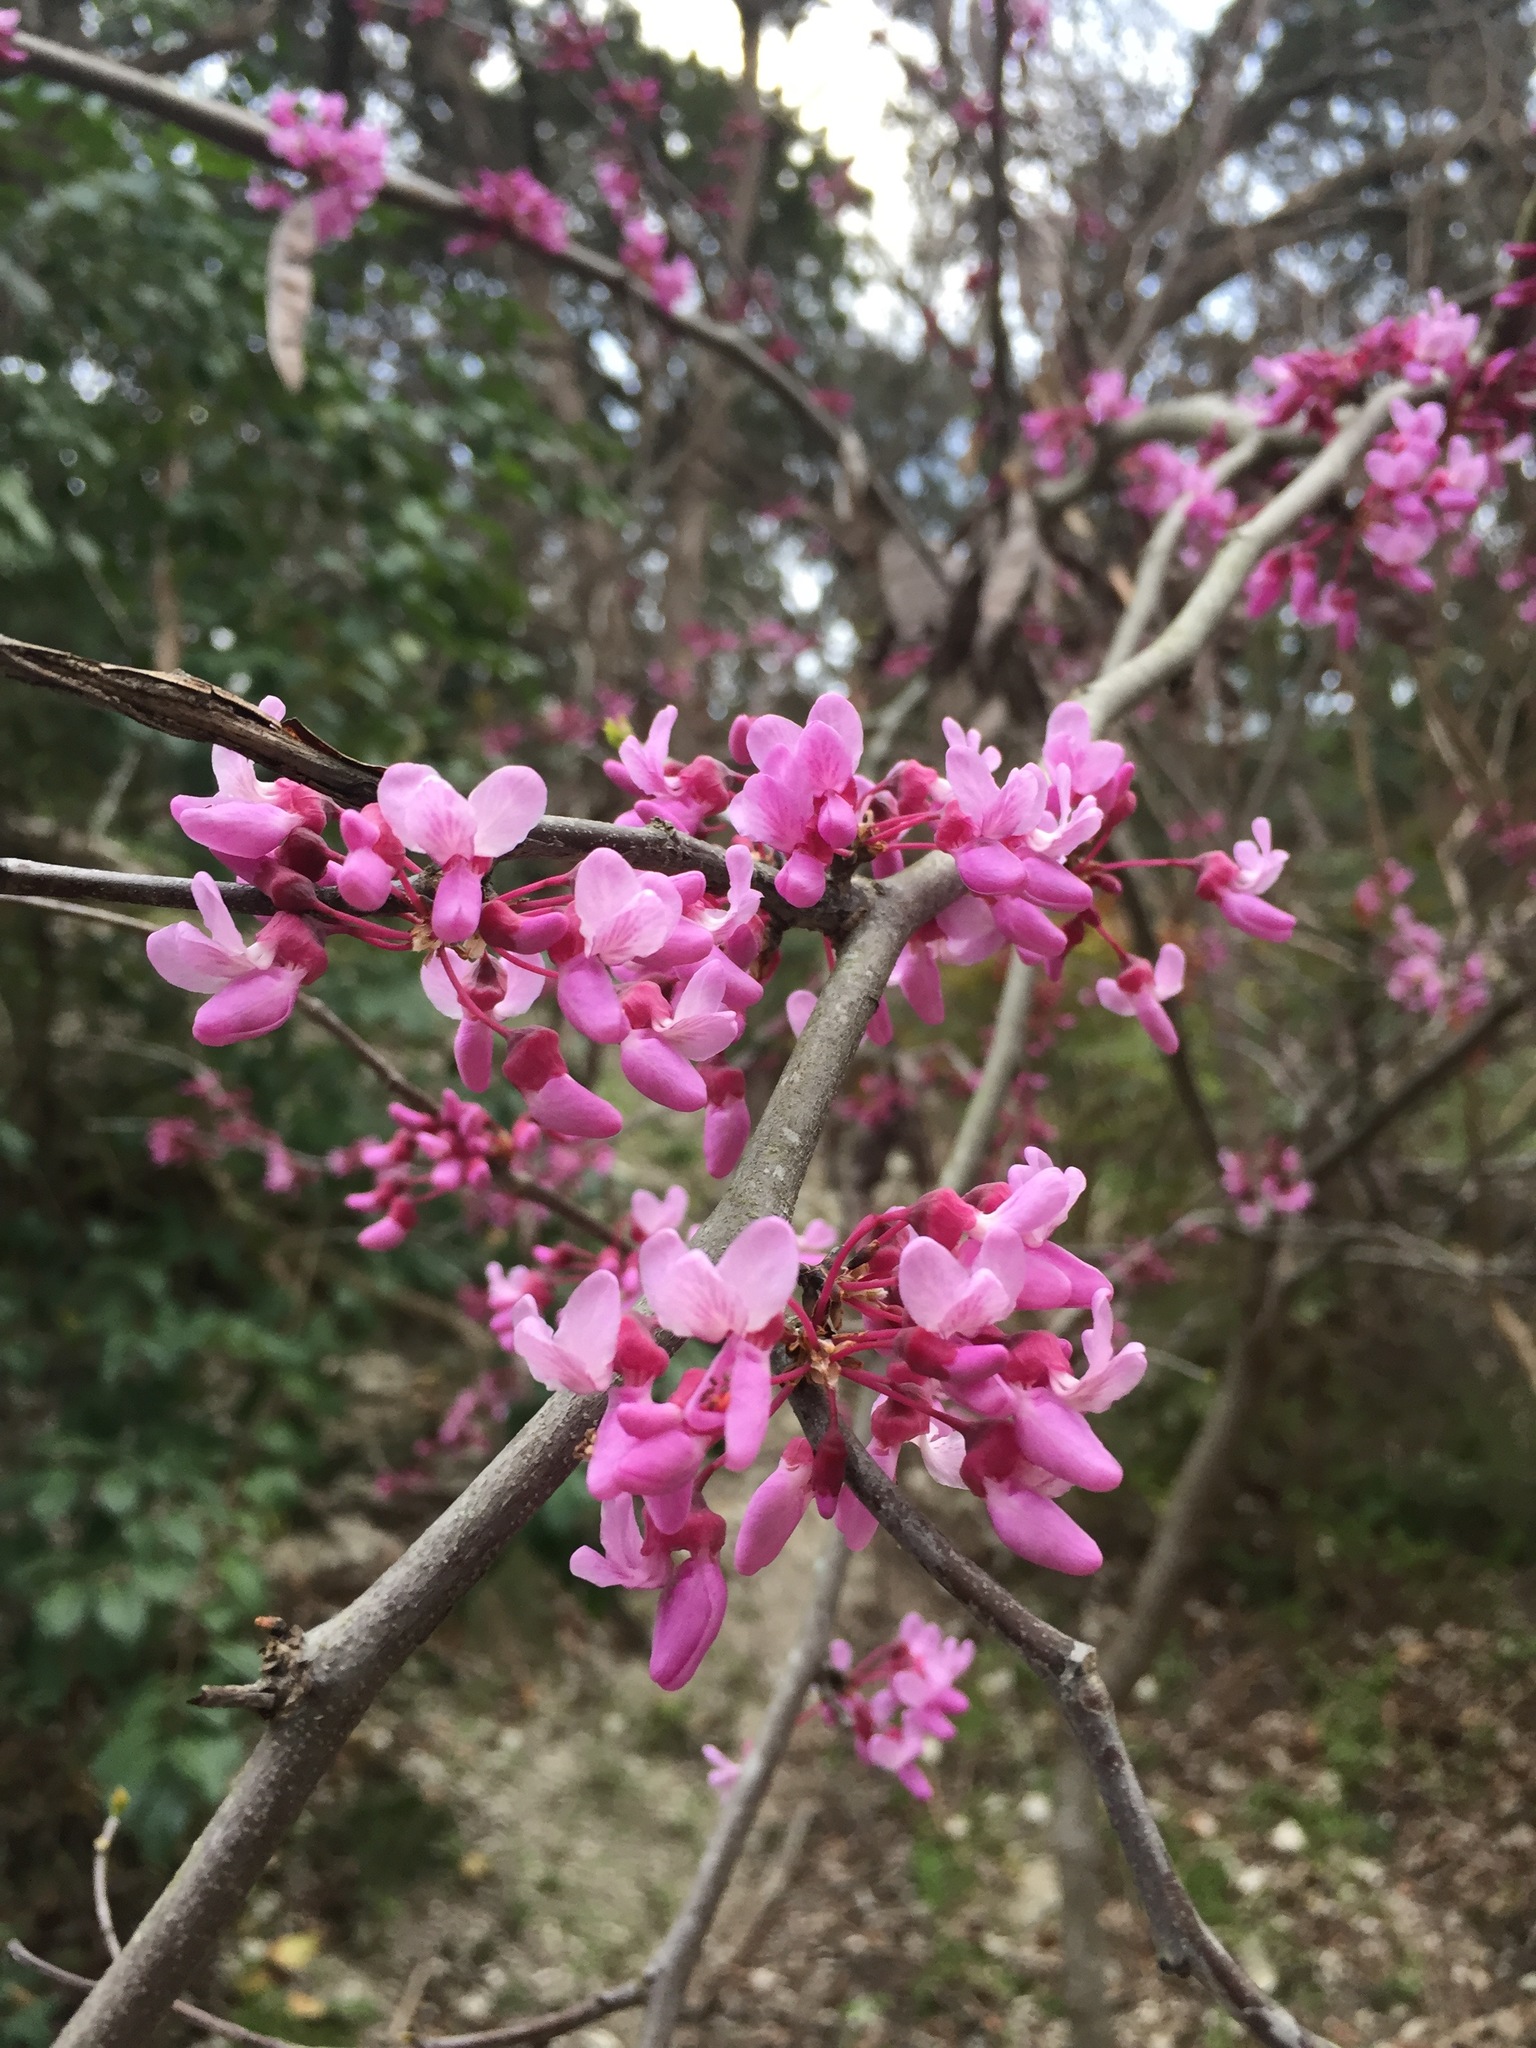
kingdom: Plantae
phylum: Tracheophyta
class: Magnoliopsida
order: Fabales
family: Fabaceae
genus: Cercis
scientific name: Cercis canadensis
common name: Eastern redbud
